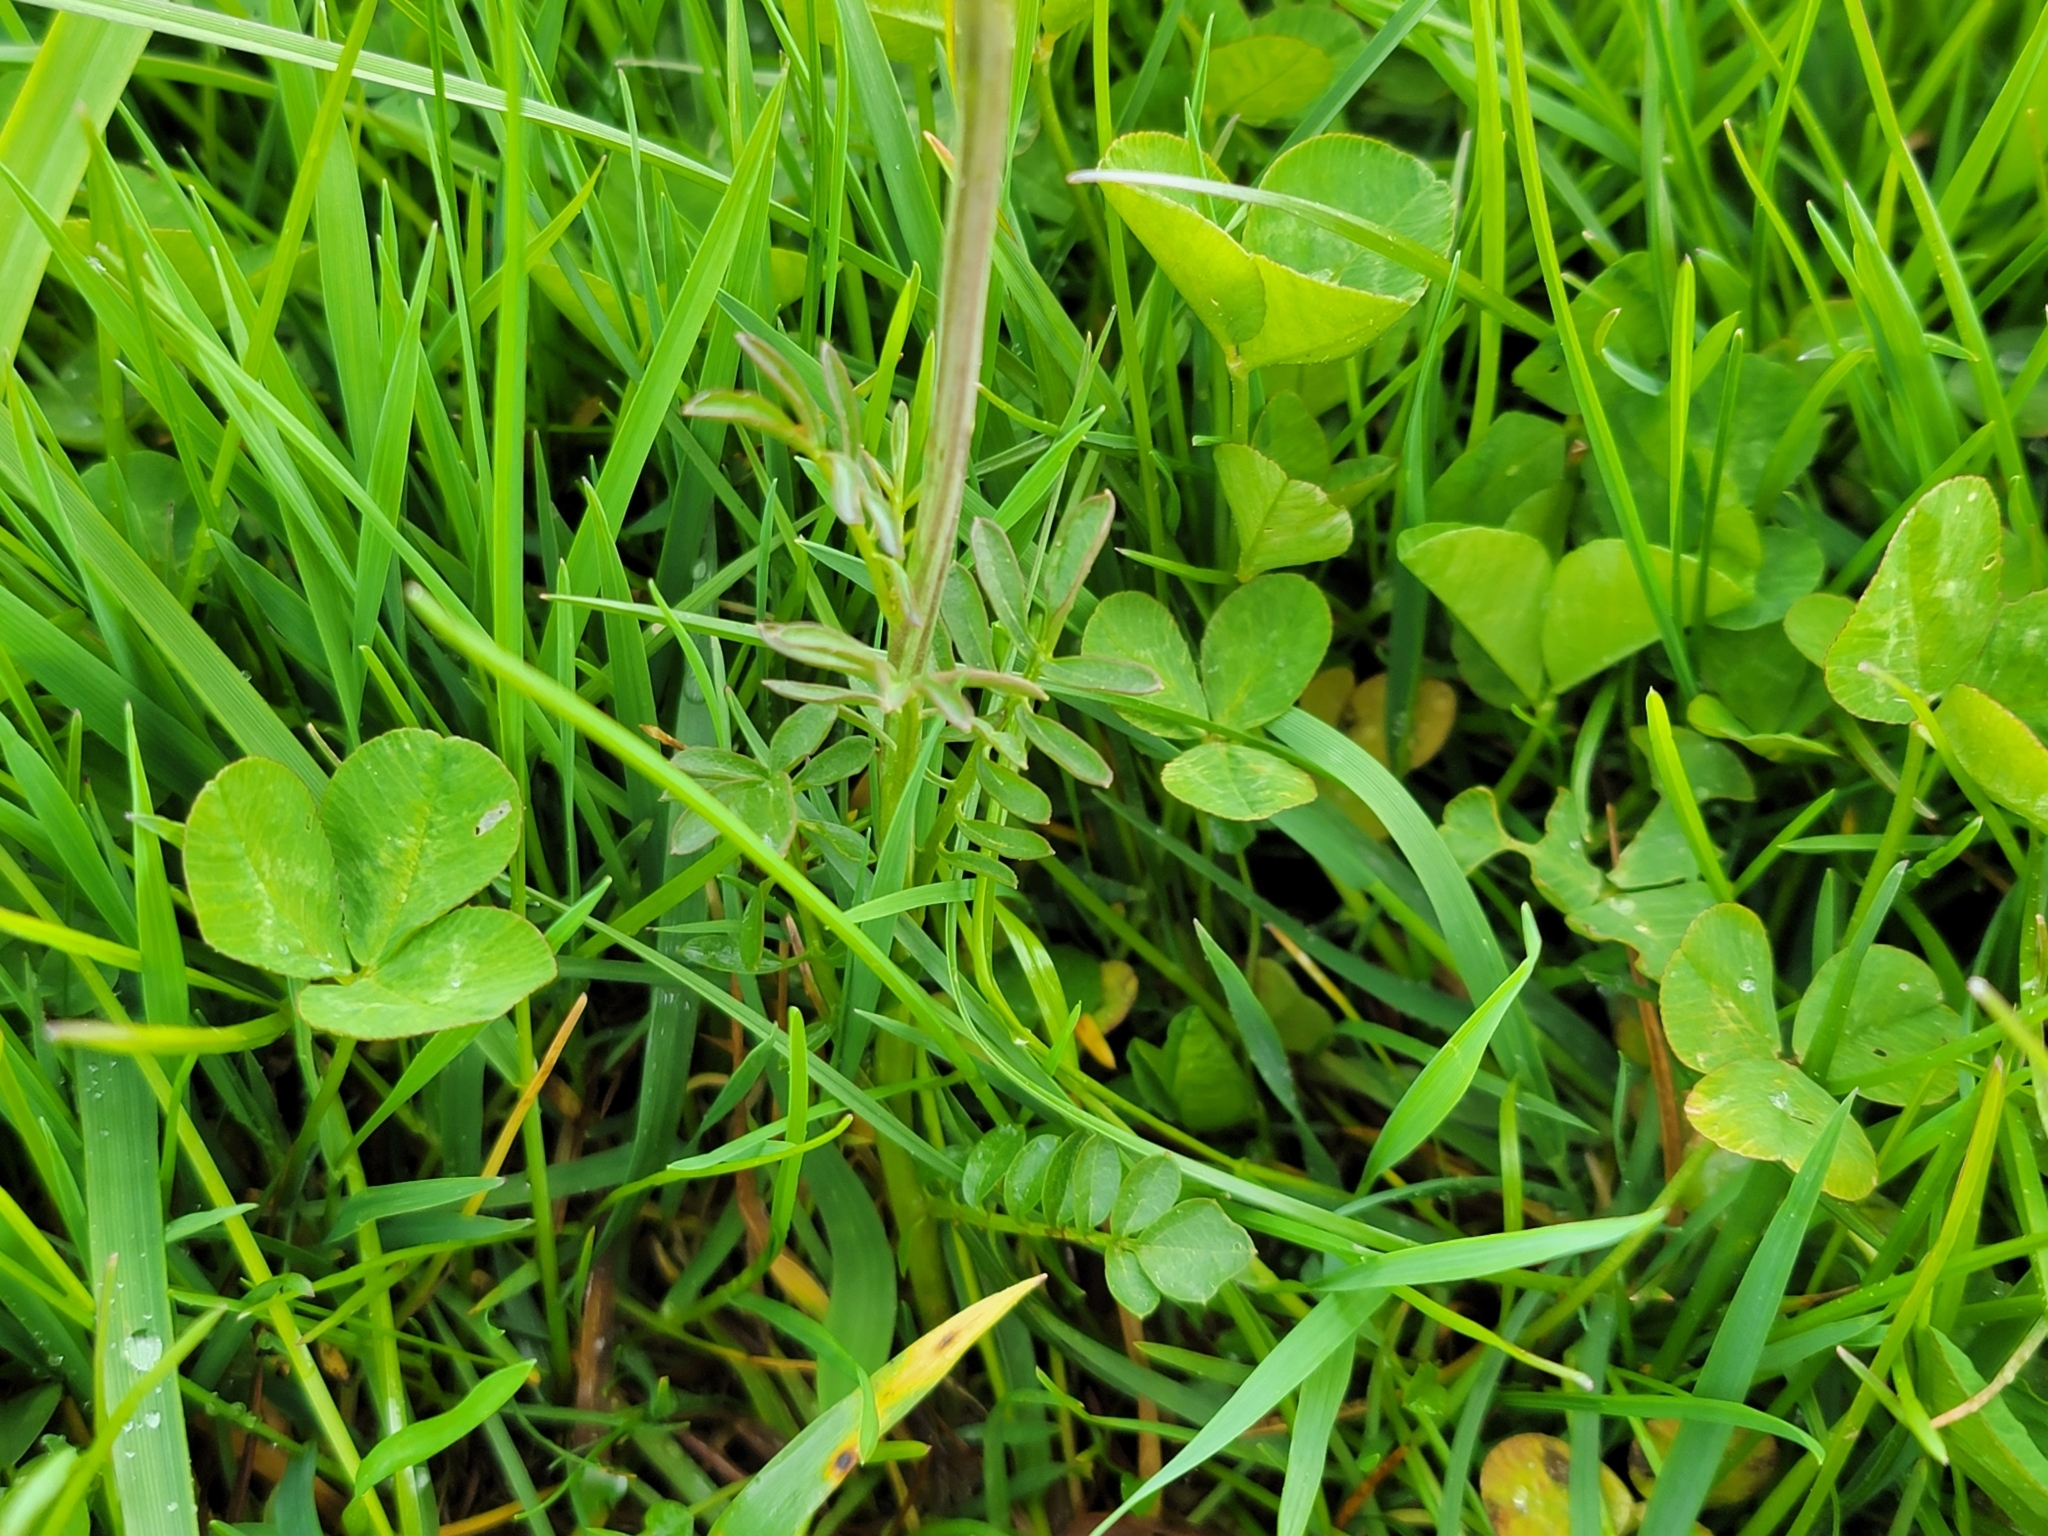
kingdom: Plantae
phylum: Tracheophyta
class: Magnoliopsida
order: Brassicales
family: Brassicaceae
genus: Cardamine
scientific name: Cardamine pratensis
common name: Cuckoo flower
